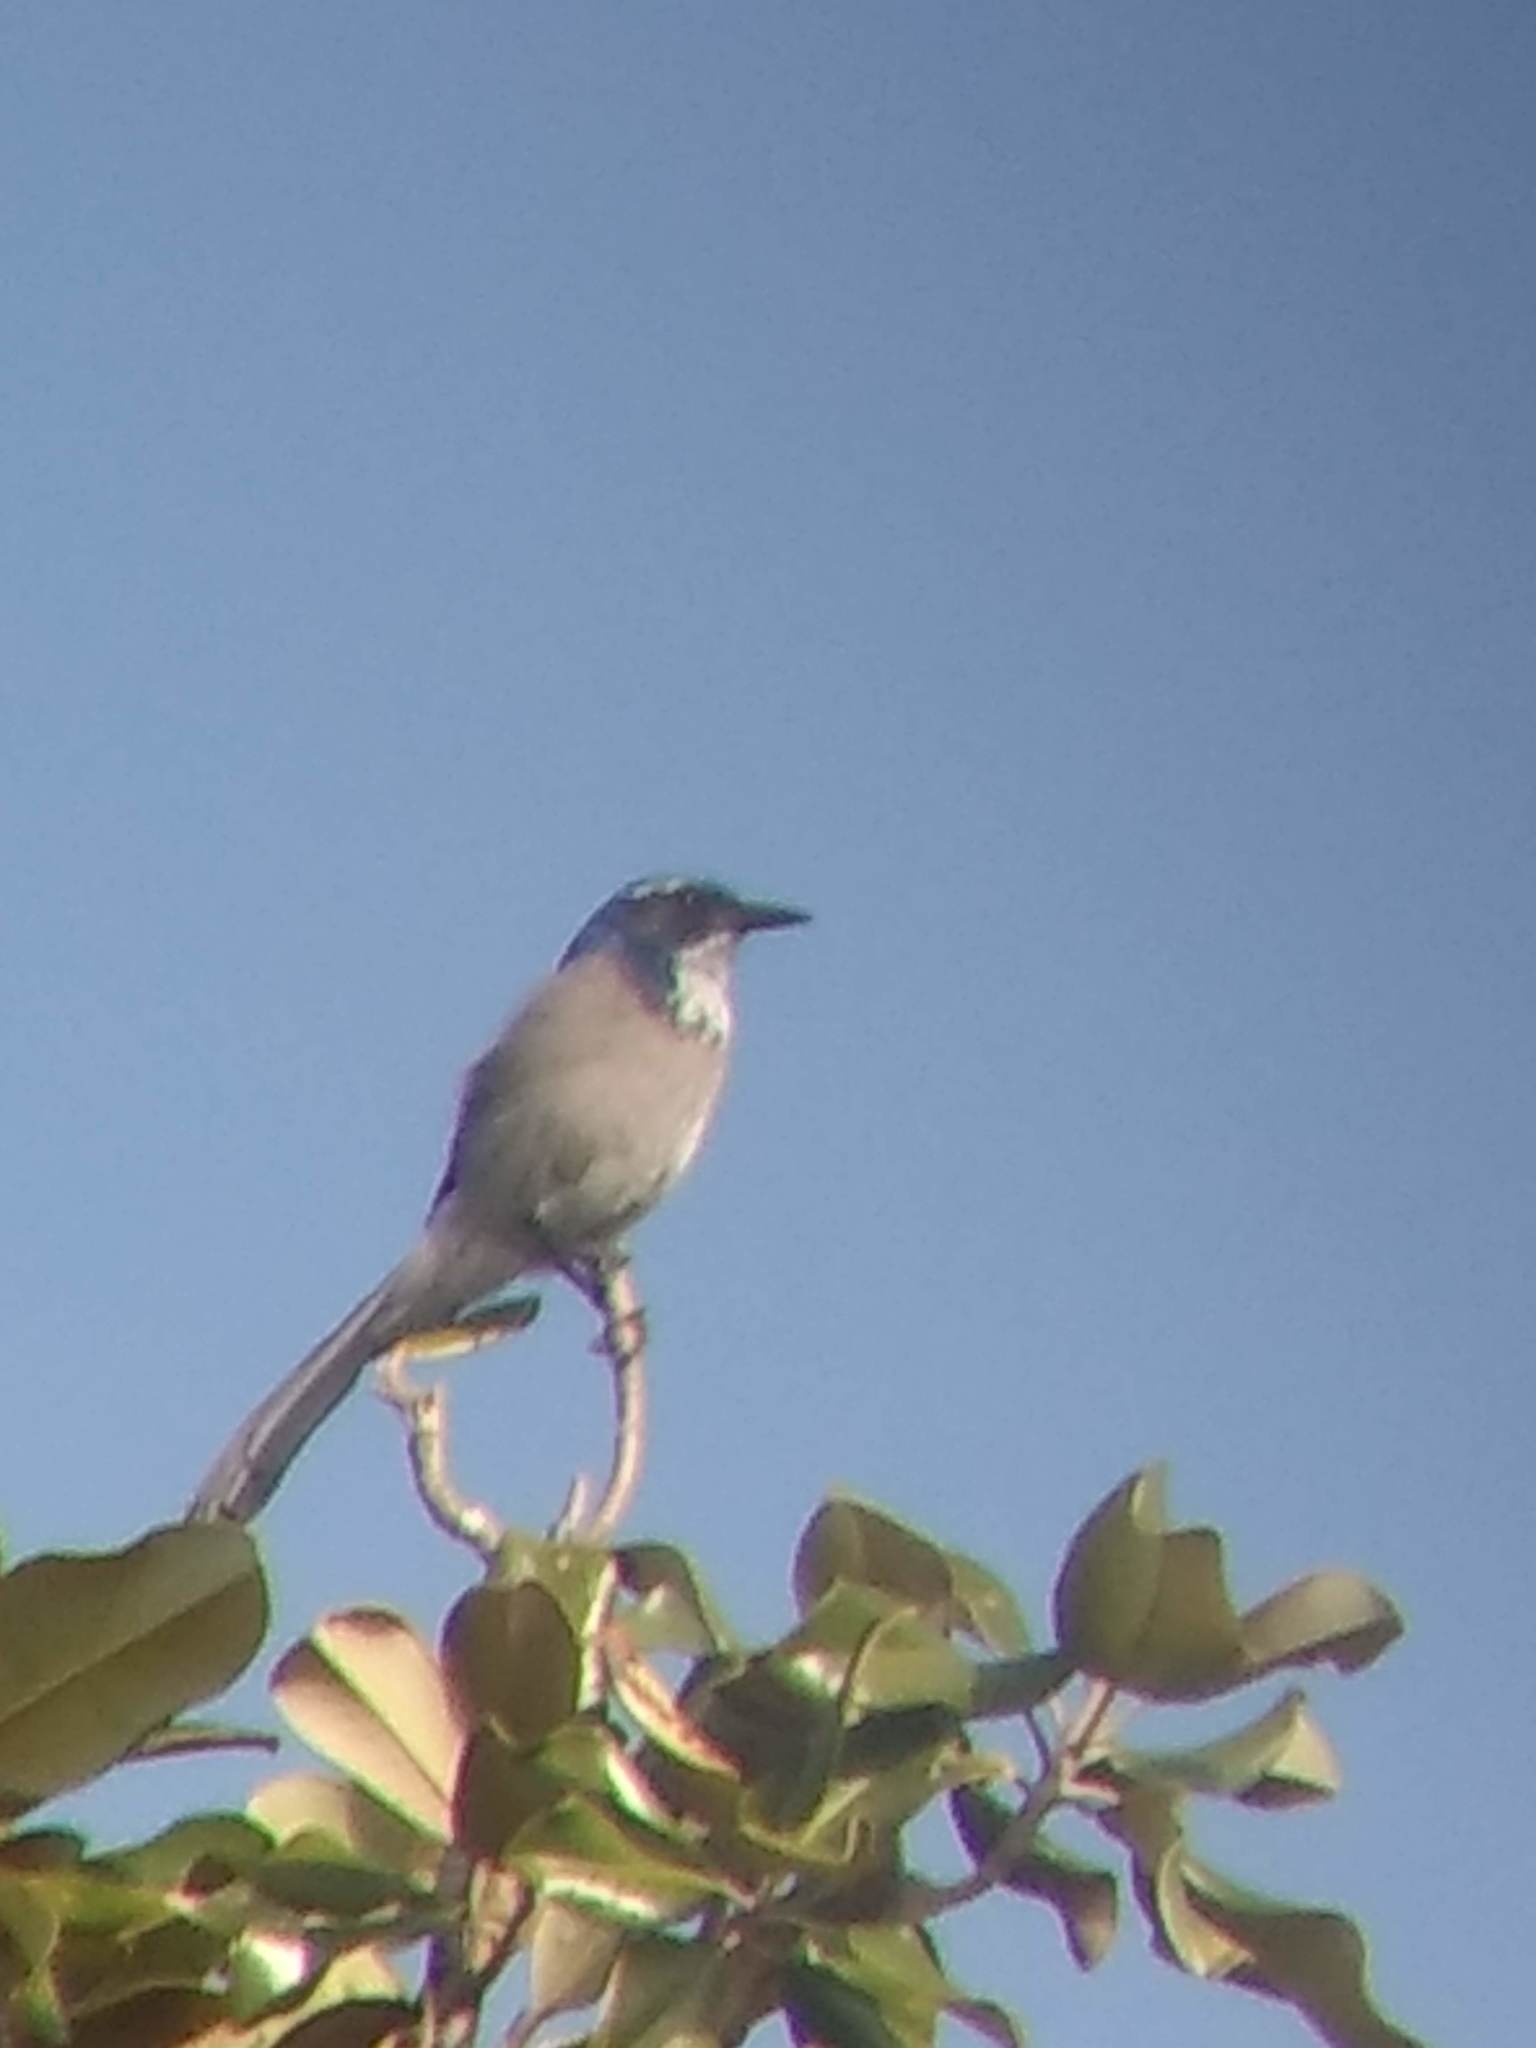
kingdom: Animalia
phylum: Chordata
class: Aves
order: Passeriformes
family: Corvidae
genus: Aphelocoma
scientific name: Aphelocoma californica
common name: California scrub-jay
